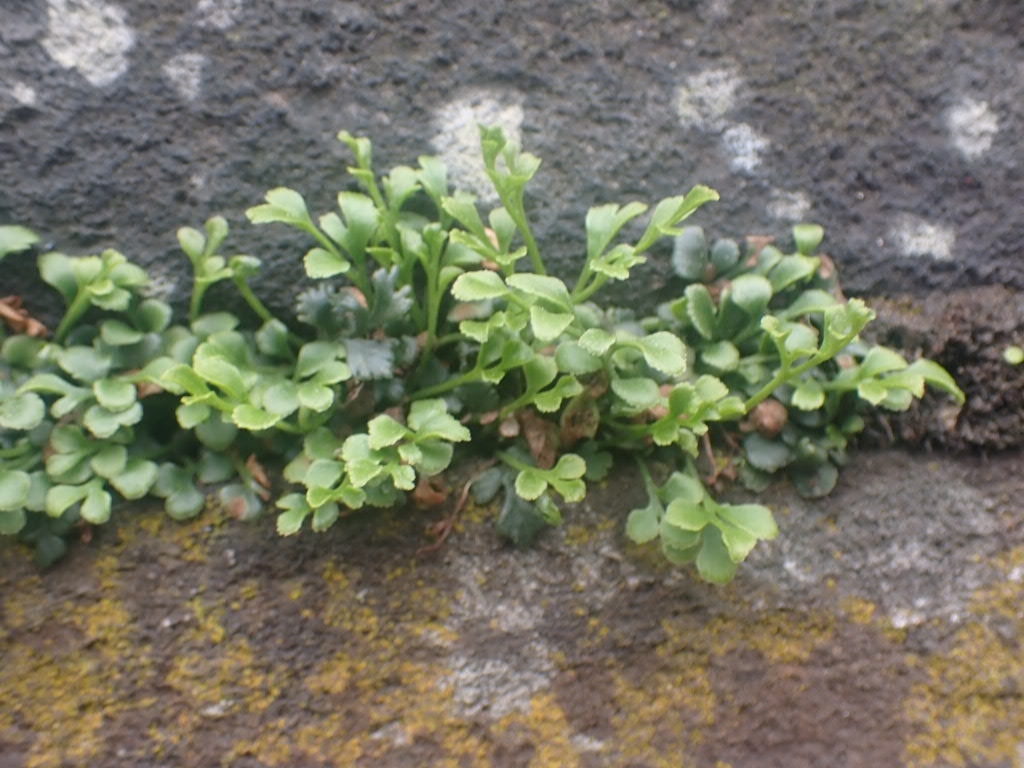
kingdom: Plantae
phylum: Tracheophyta
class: Polypodiopsida
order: Polypodiales
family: Aspleniaceae
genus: Asplenium
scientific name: Asplenium ruta-muraria
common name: Wall-rue
